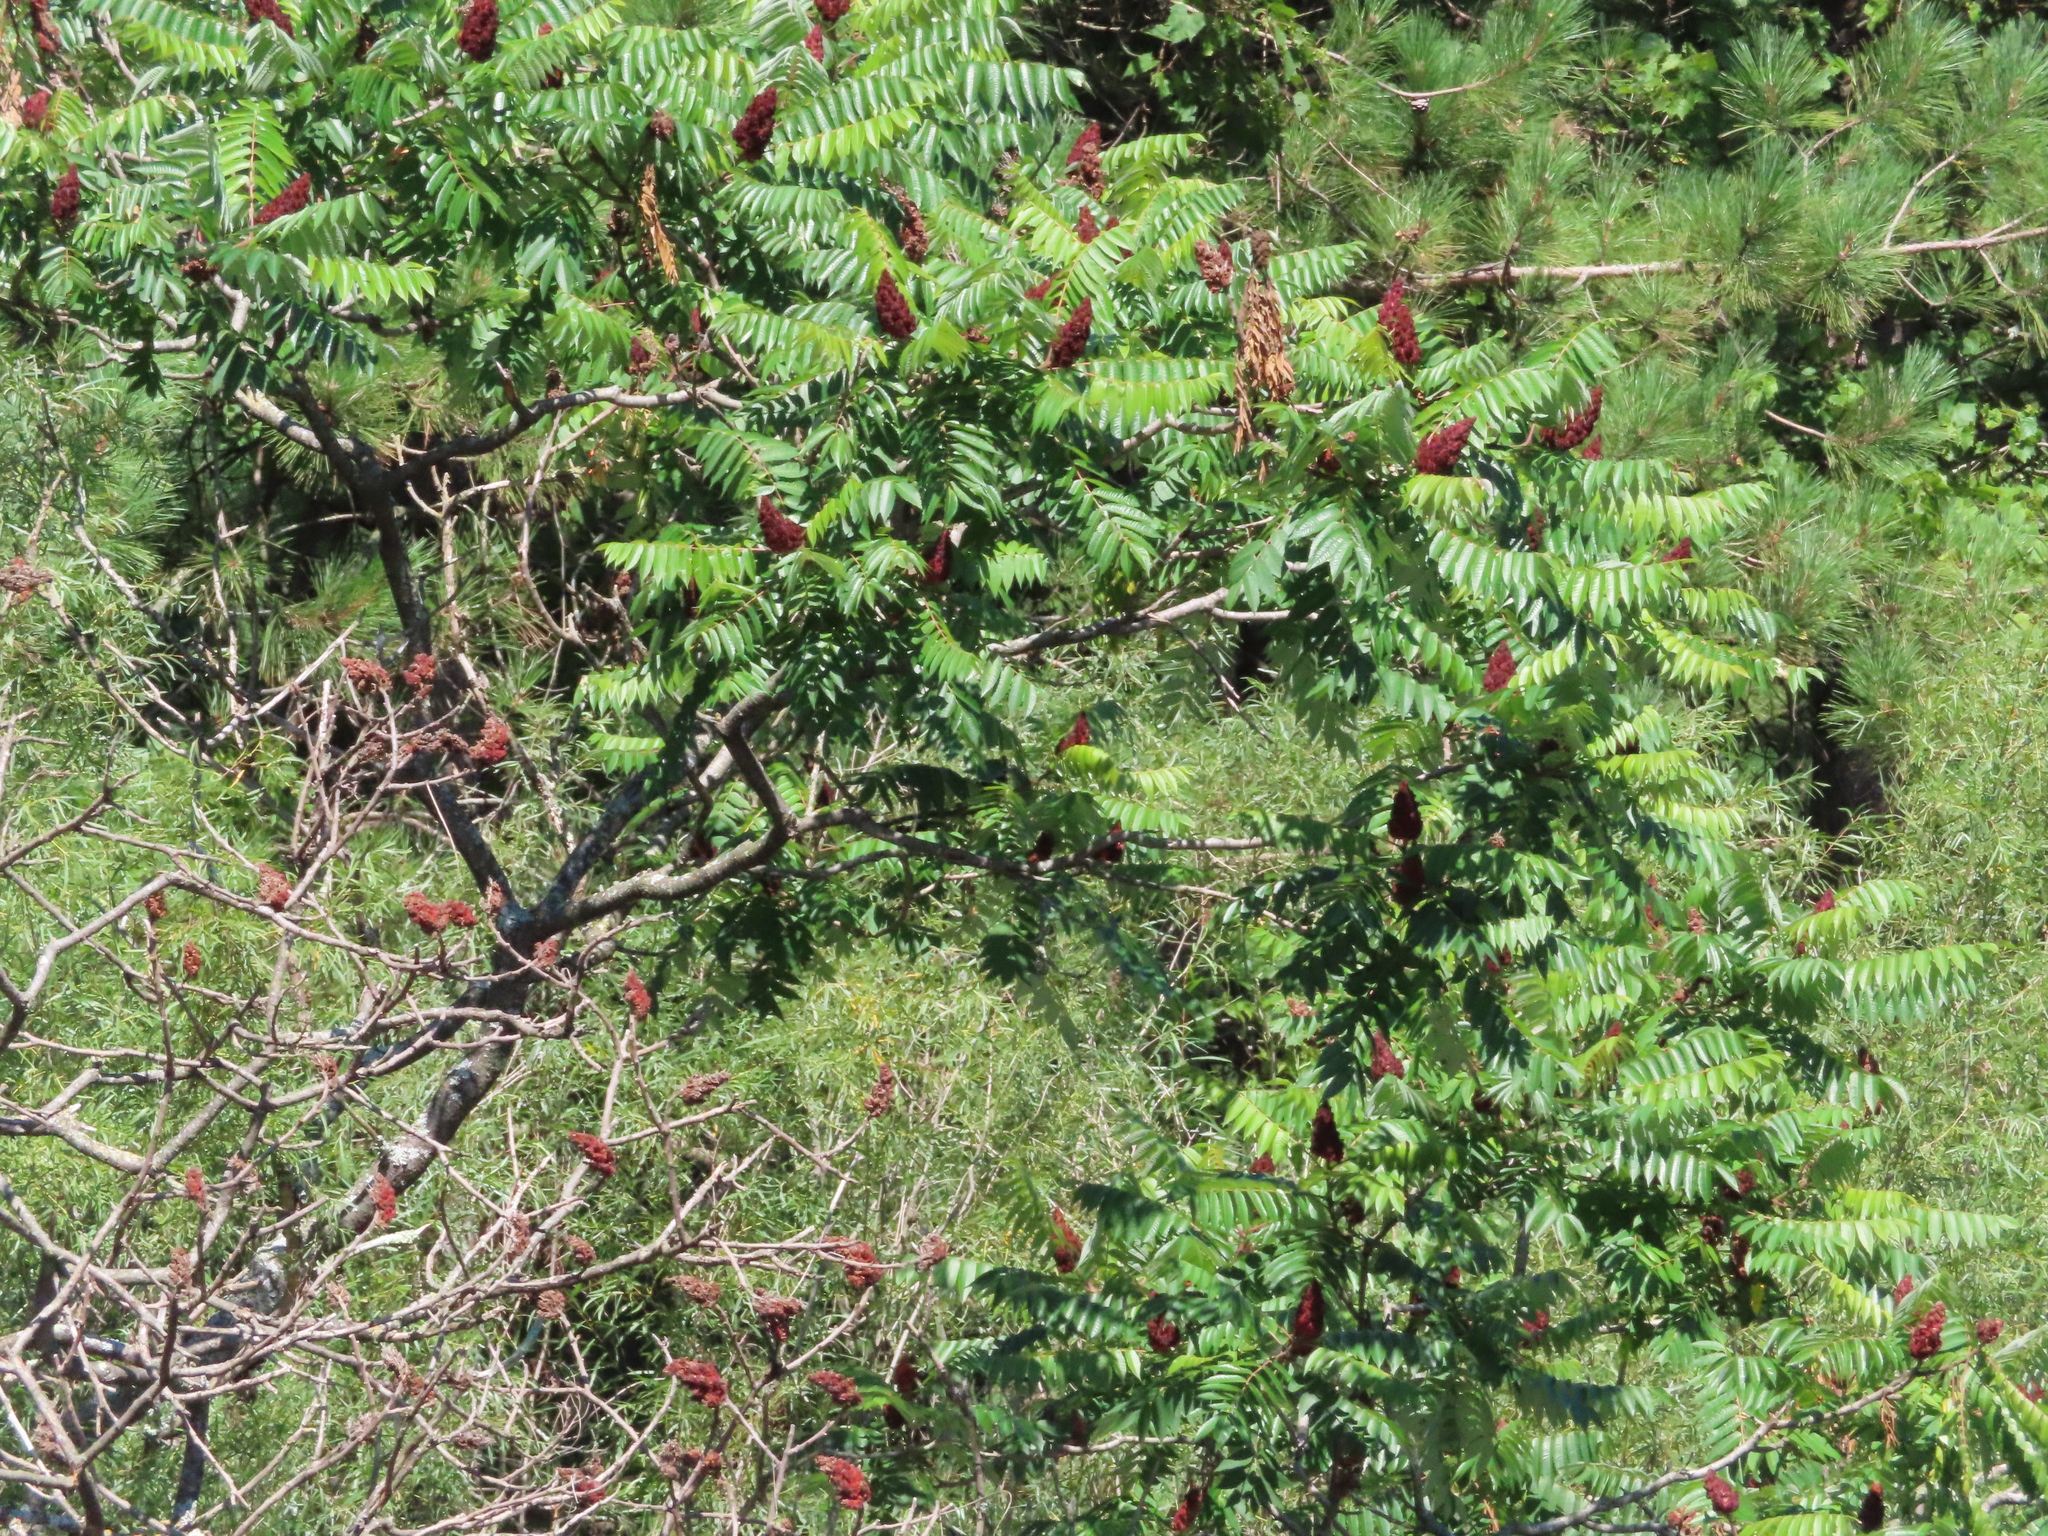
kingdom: Plantae
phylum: Tracheophyta
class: Magnoliopsida
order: Sapindales
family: Anacardiaceae
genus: Rhus
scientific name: Rhus typhina
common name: Staghorn sumac
